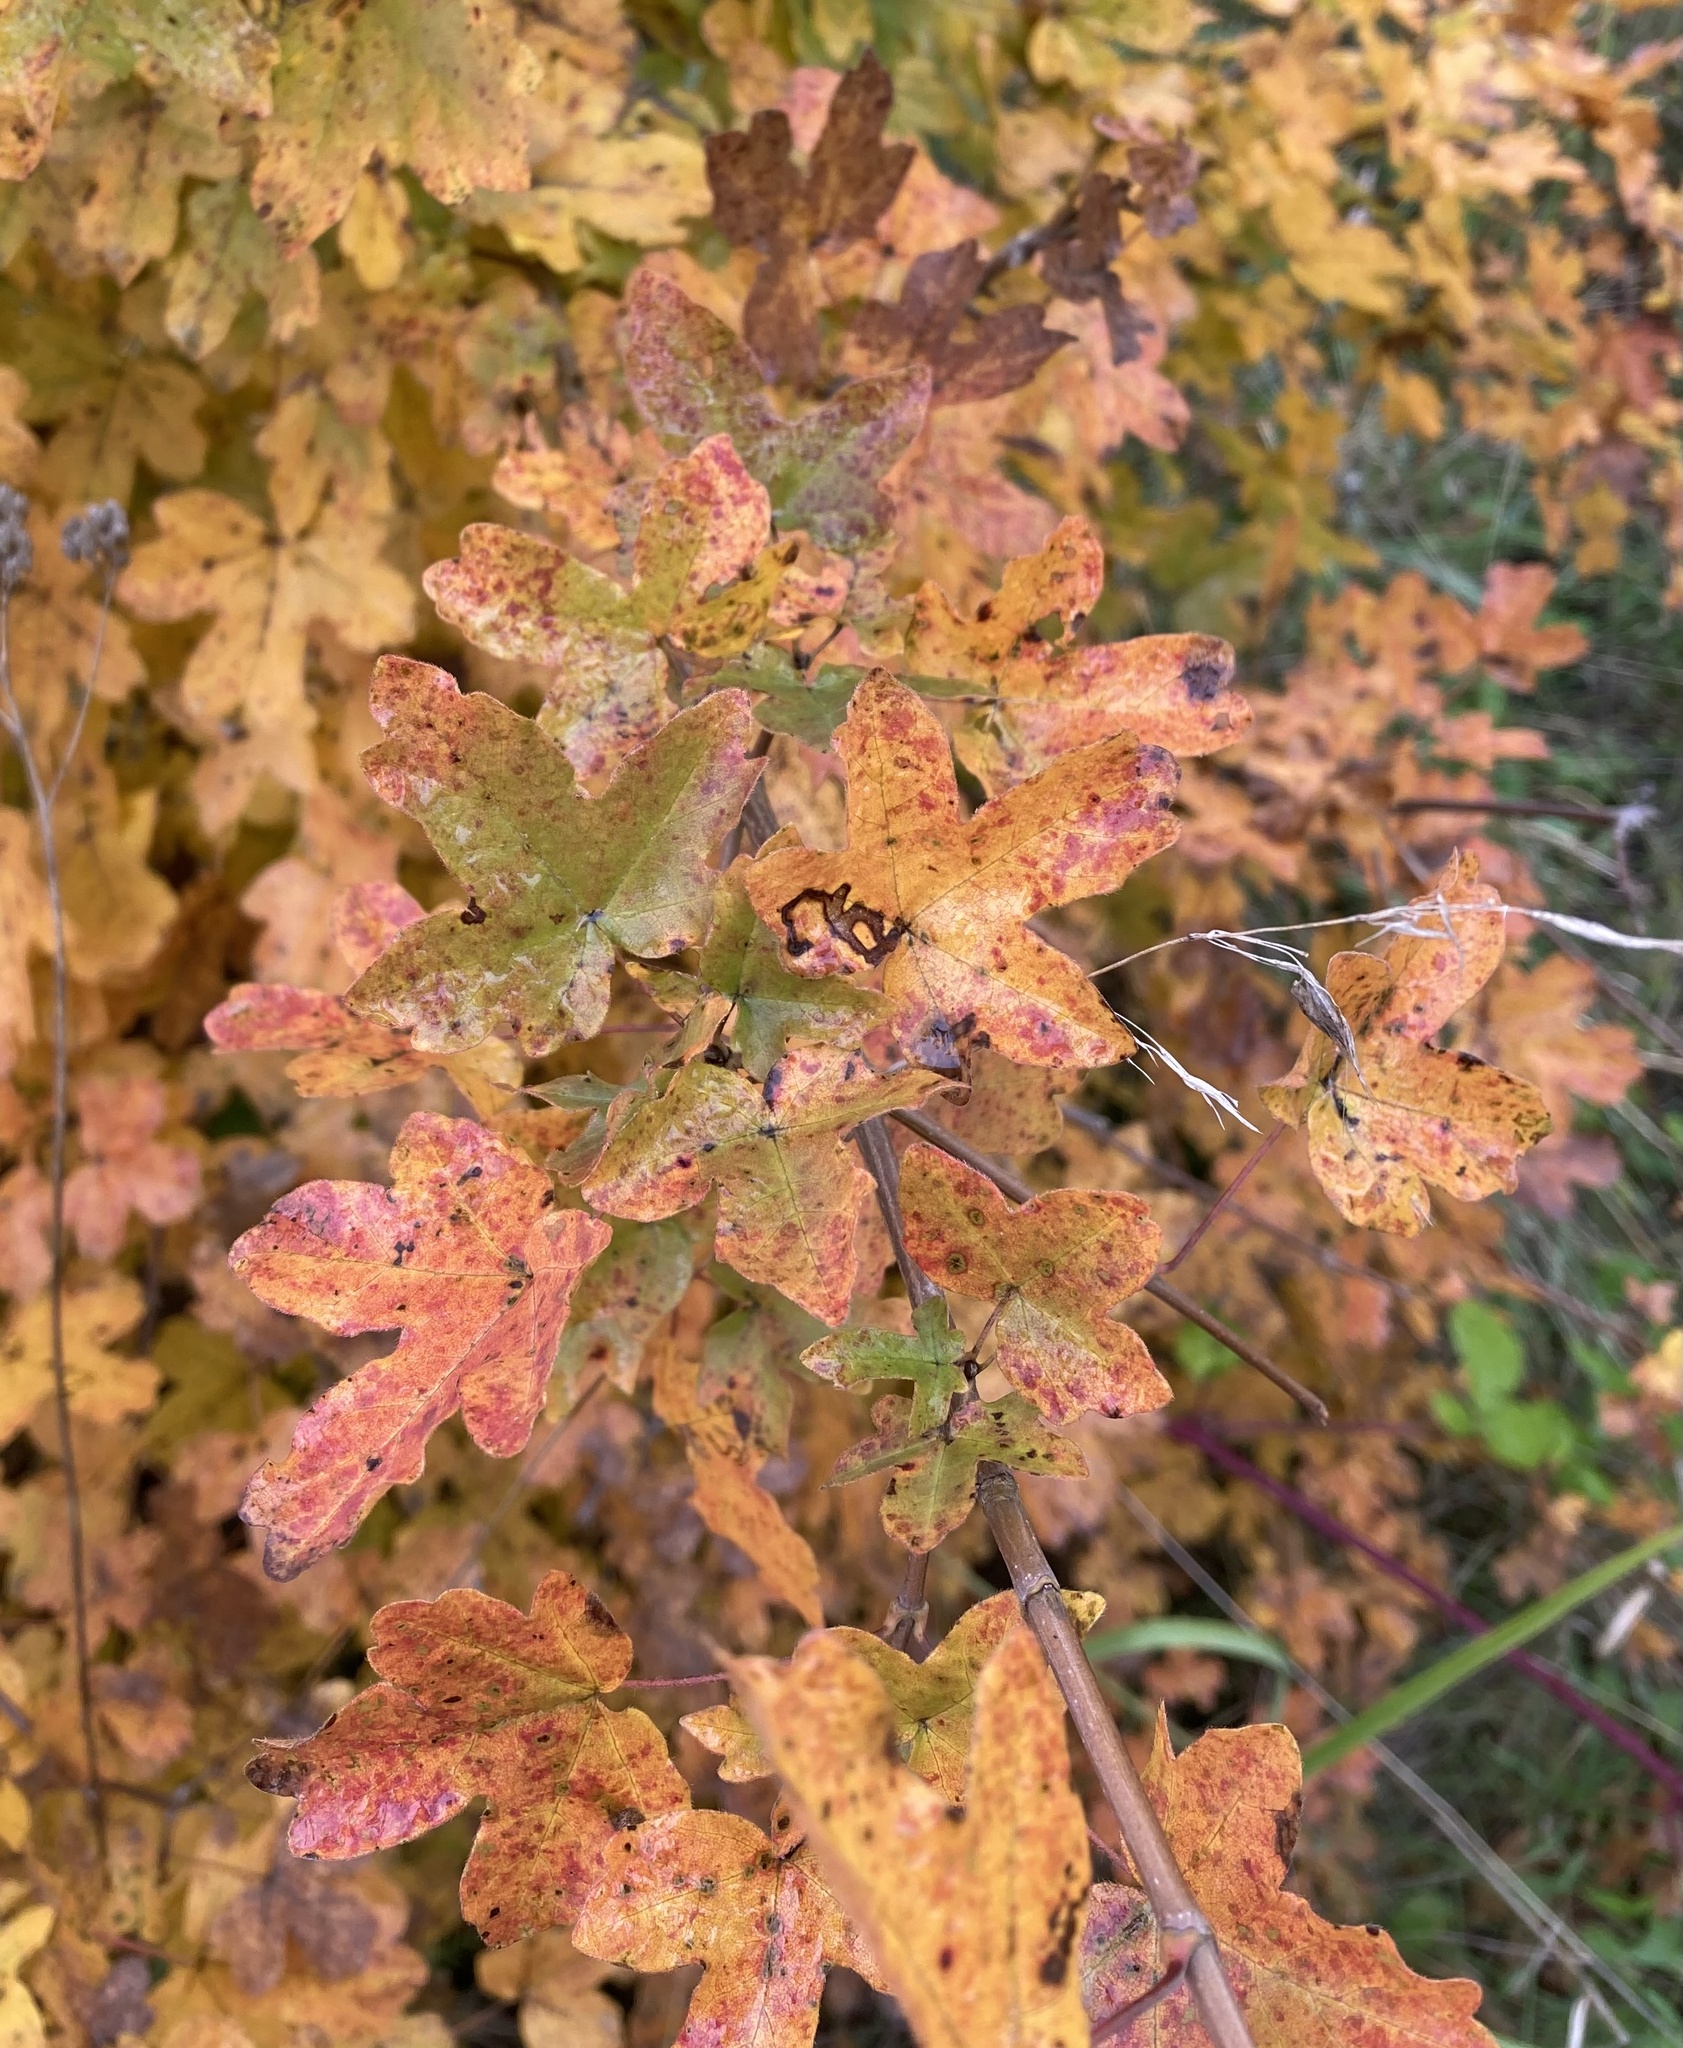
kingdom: Plantae
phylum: Tracheophyta
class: Magnoliopsida
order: Sapindales
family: Sapindaceae
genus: Acer
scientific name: Acer campestre
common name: Field maple
